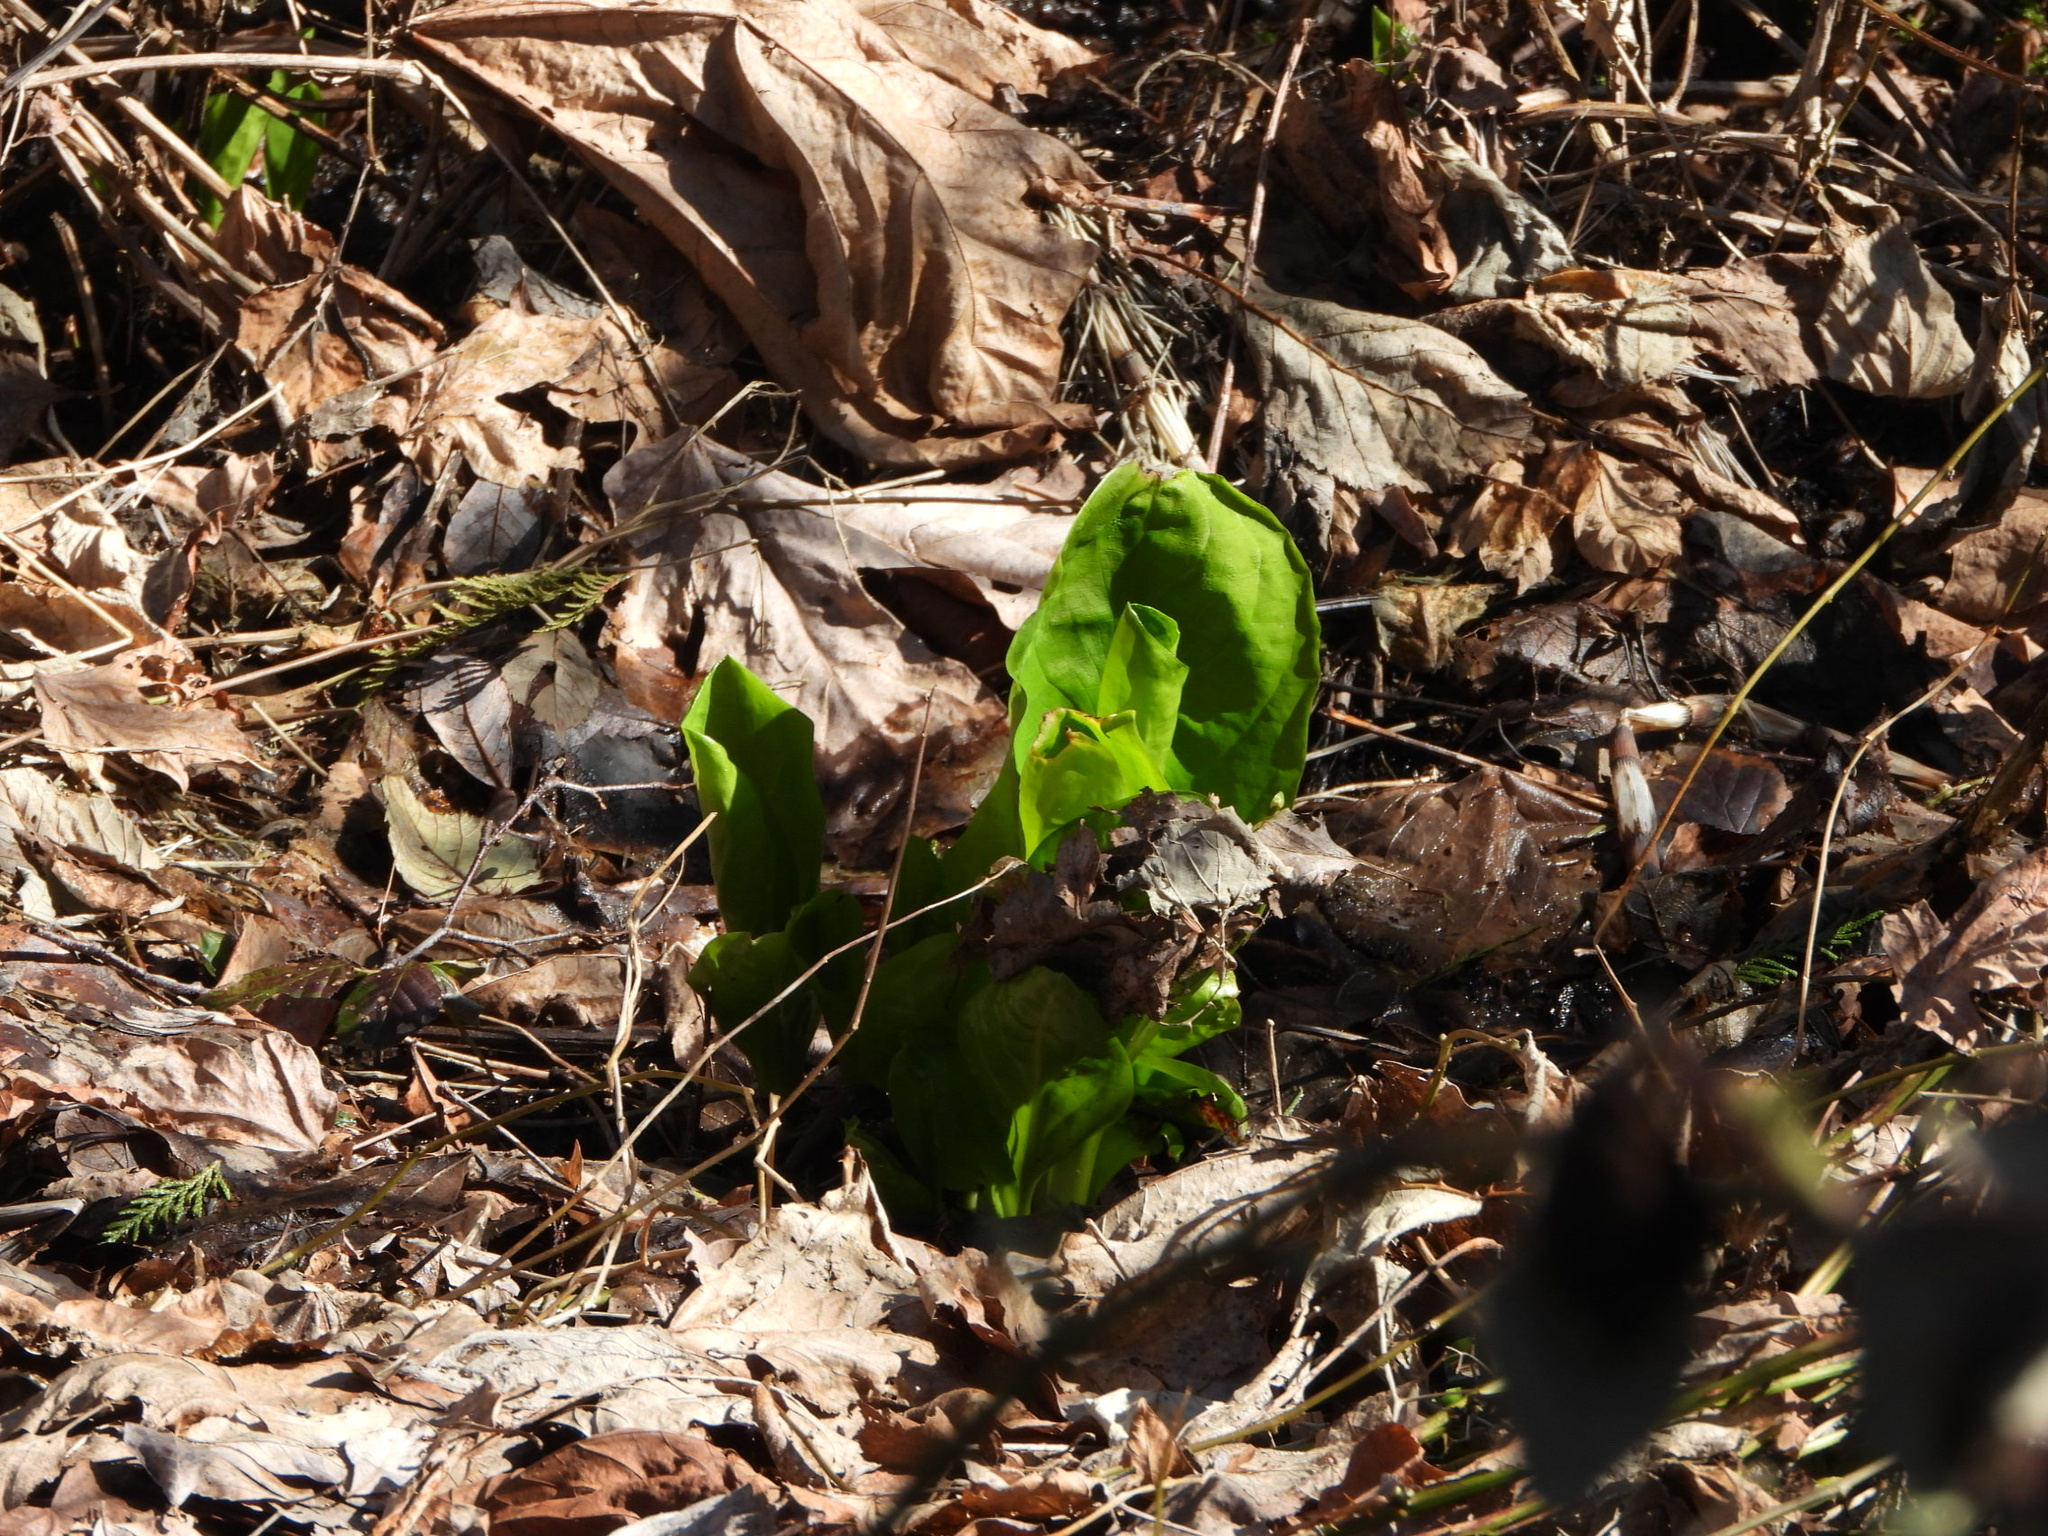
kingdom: Plantae
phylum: Tracheophyta
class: Liliopsida
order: Alismatales
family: Araceae
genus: Lysichiton
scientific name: Lysichiton americanus
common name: American skunk cabbage
